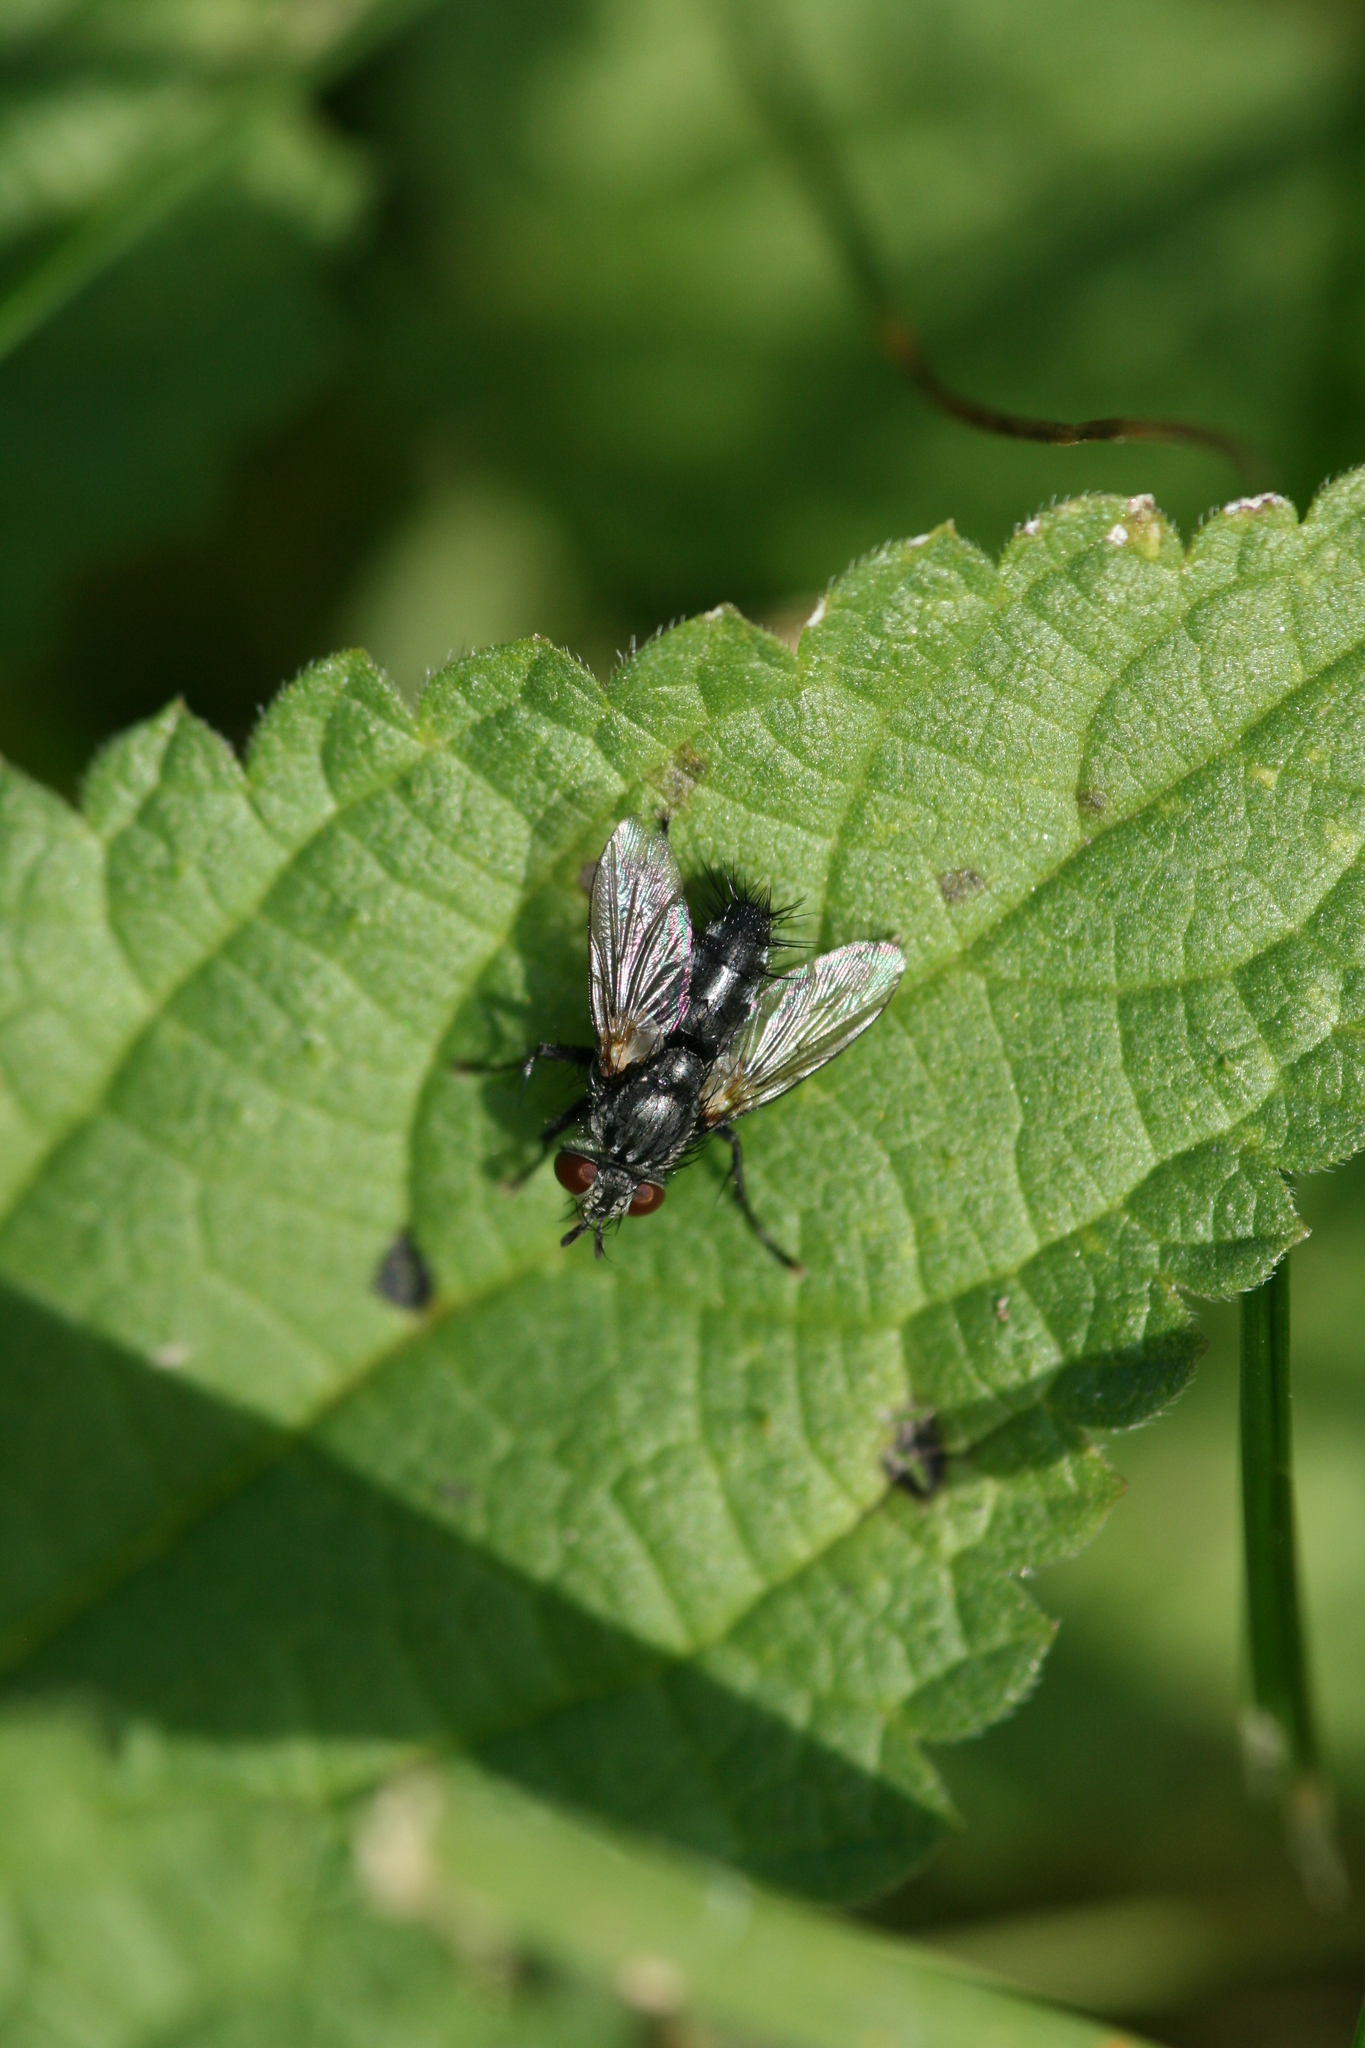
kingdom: Animalia
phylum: Arthropoda
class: Insecta
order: Diptera
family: Tachinidae
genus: Voria
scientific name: Voria ruralis
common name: Parasitic fly
